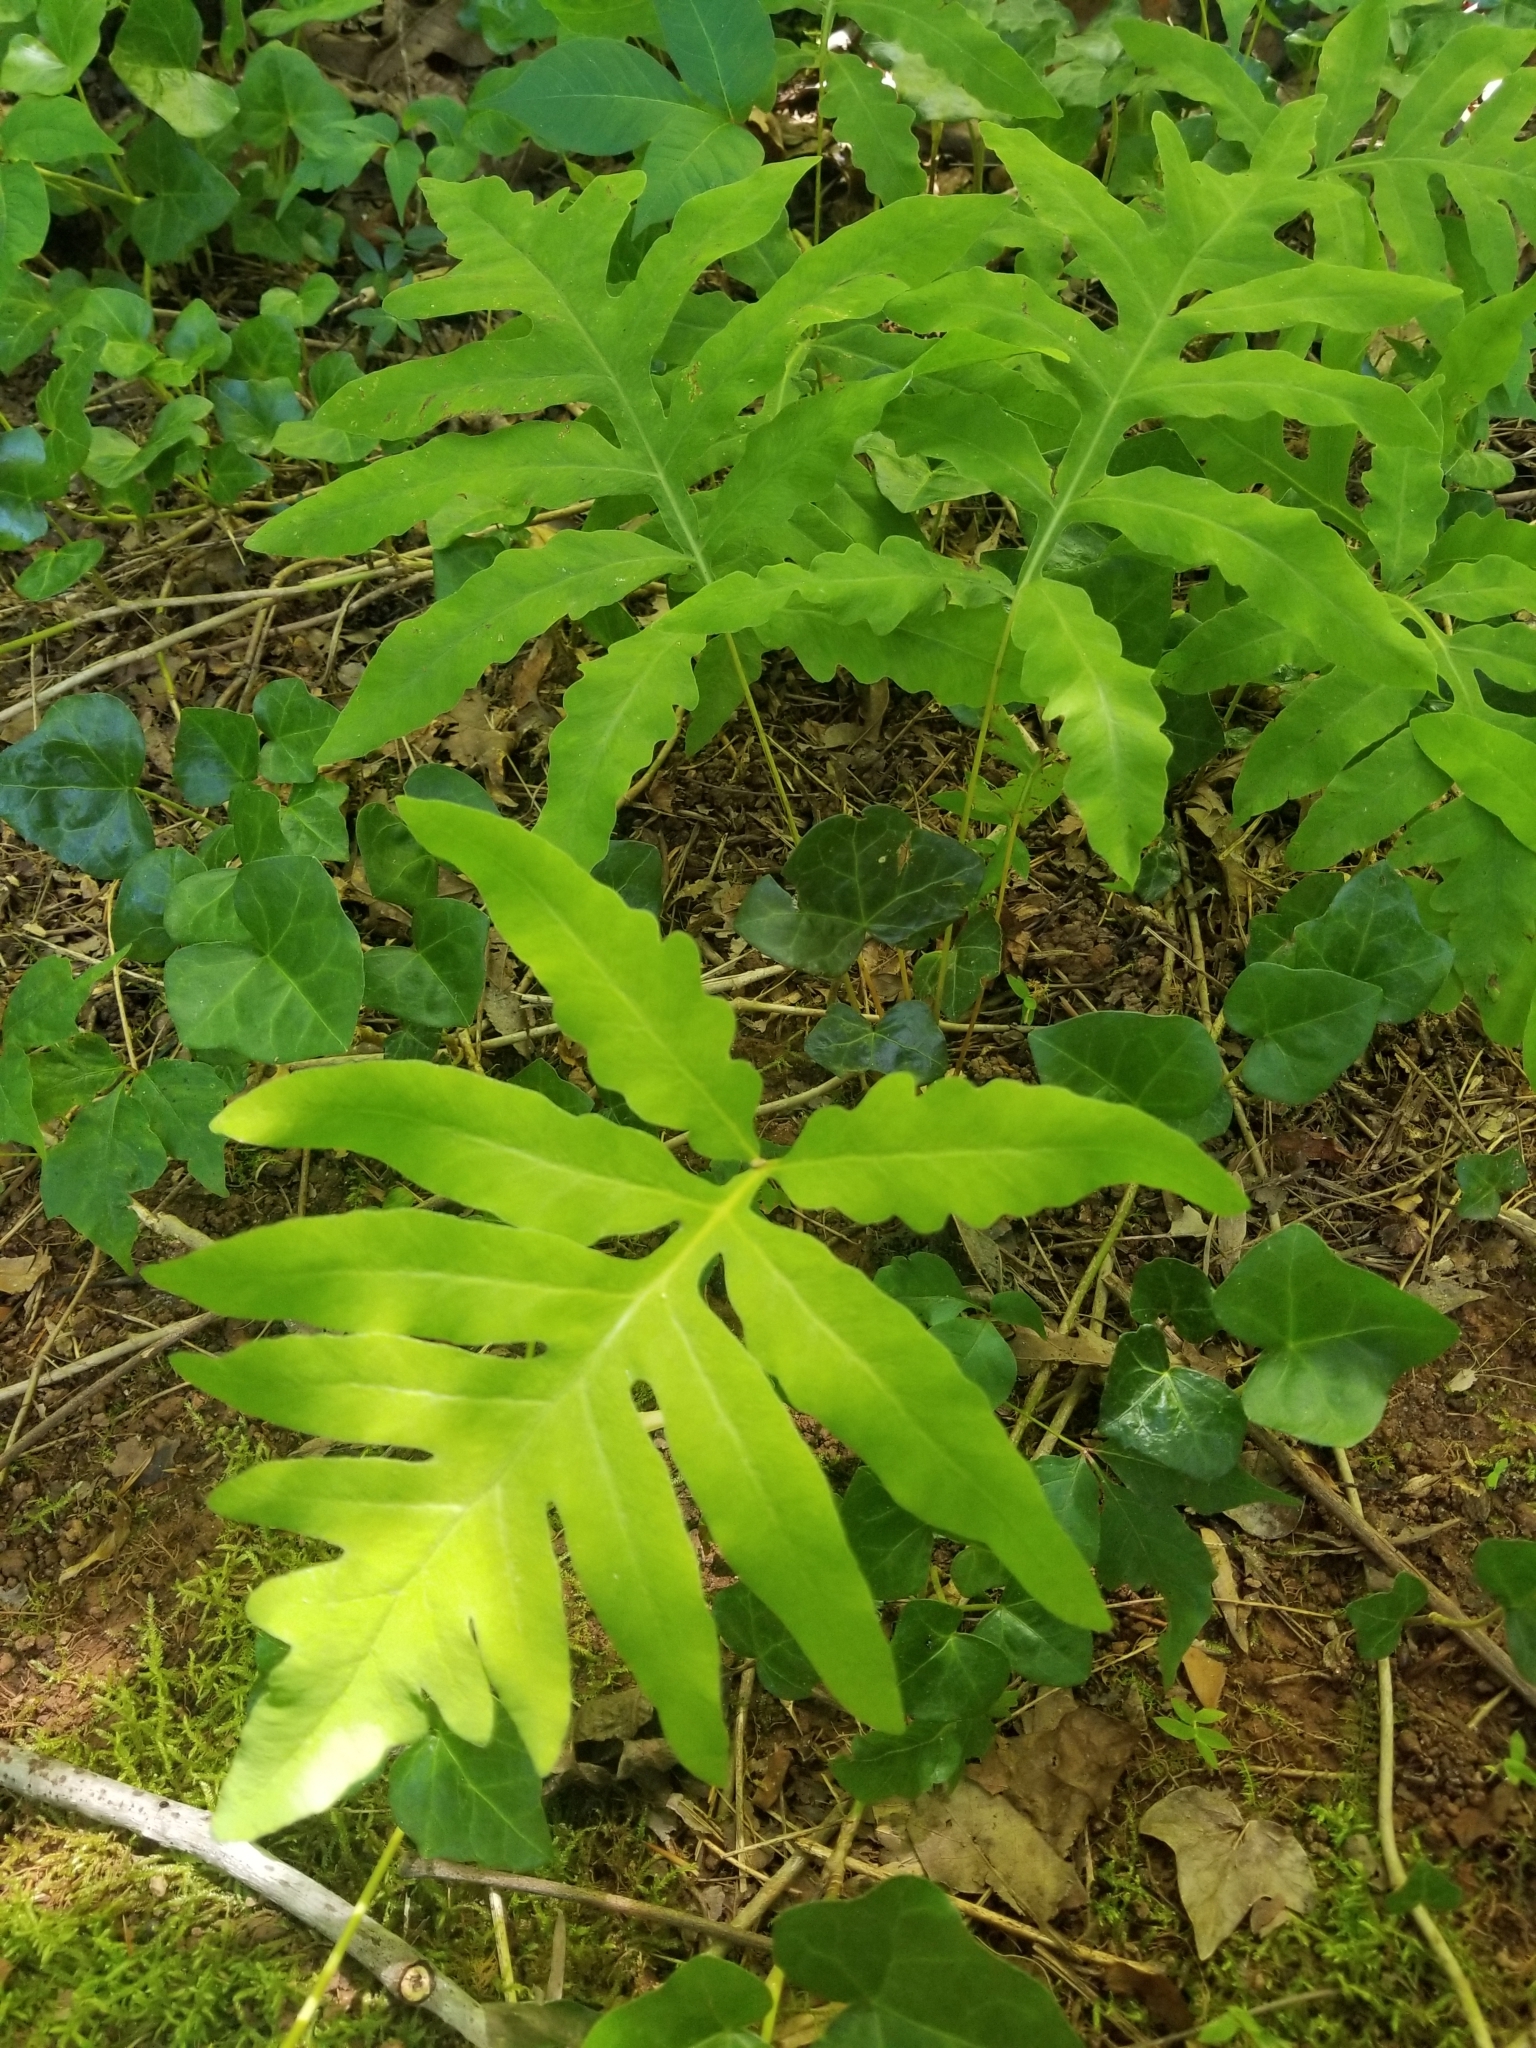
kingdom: Plantae
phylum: Tracheophyta
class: Polypodiopsida
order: Polypodiales
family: Onocleaceae
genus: Onoclea
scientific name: Onoclea sensibilis
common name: Sensitive fern
